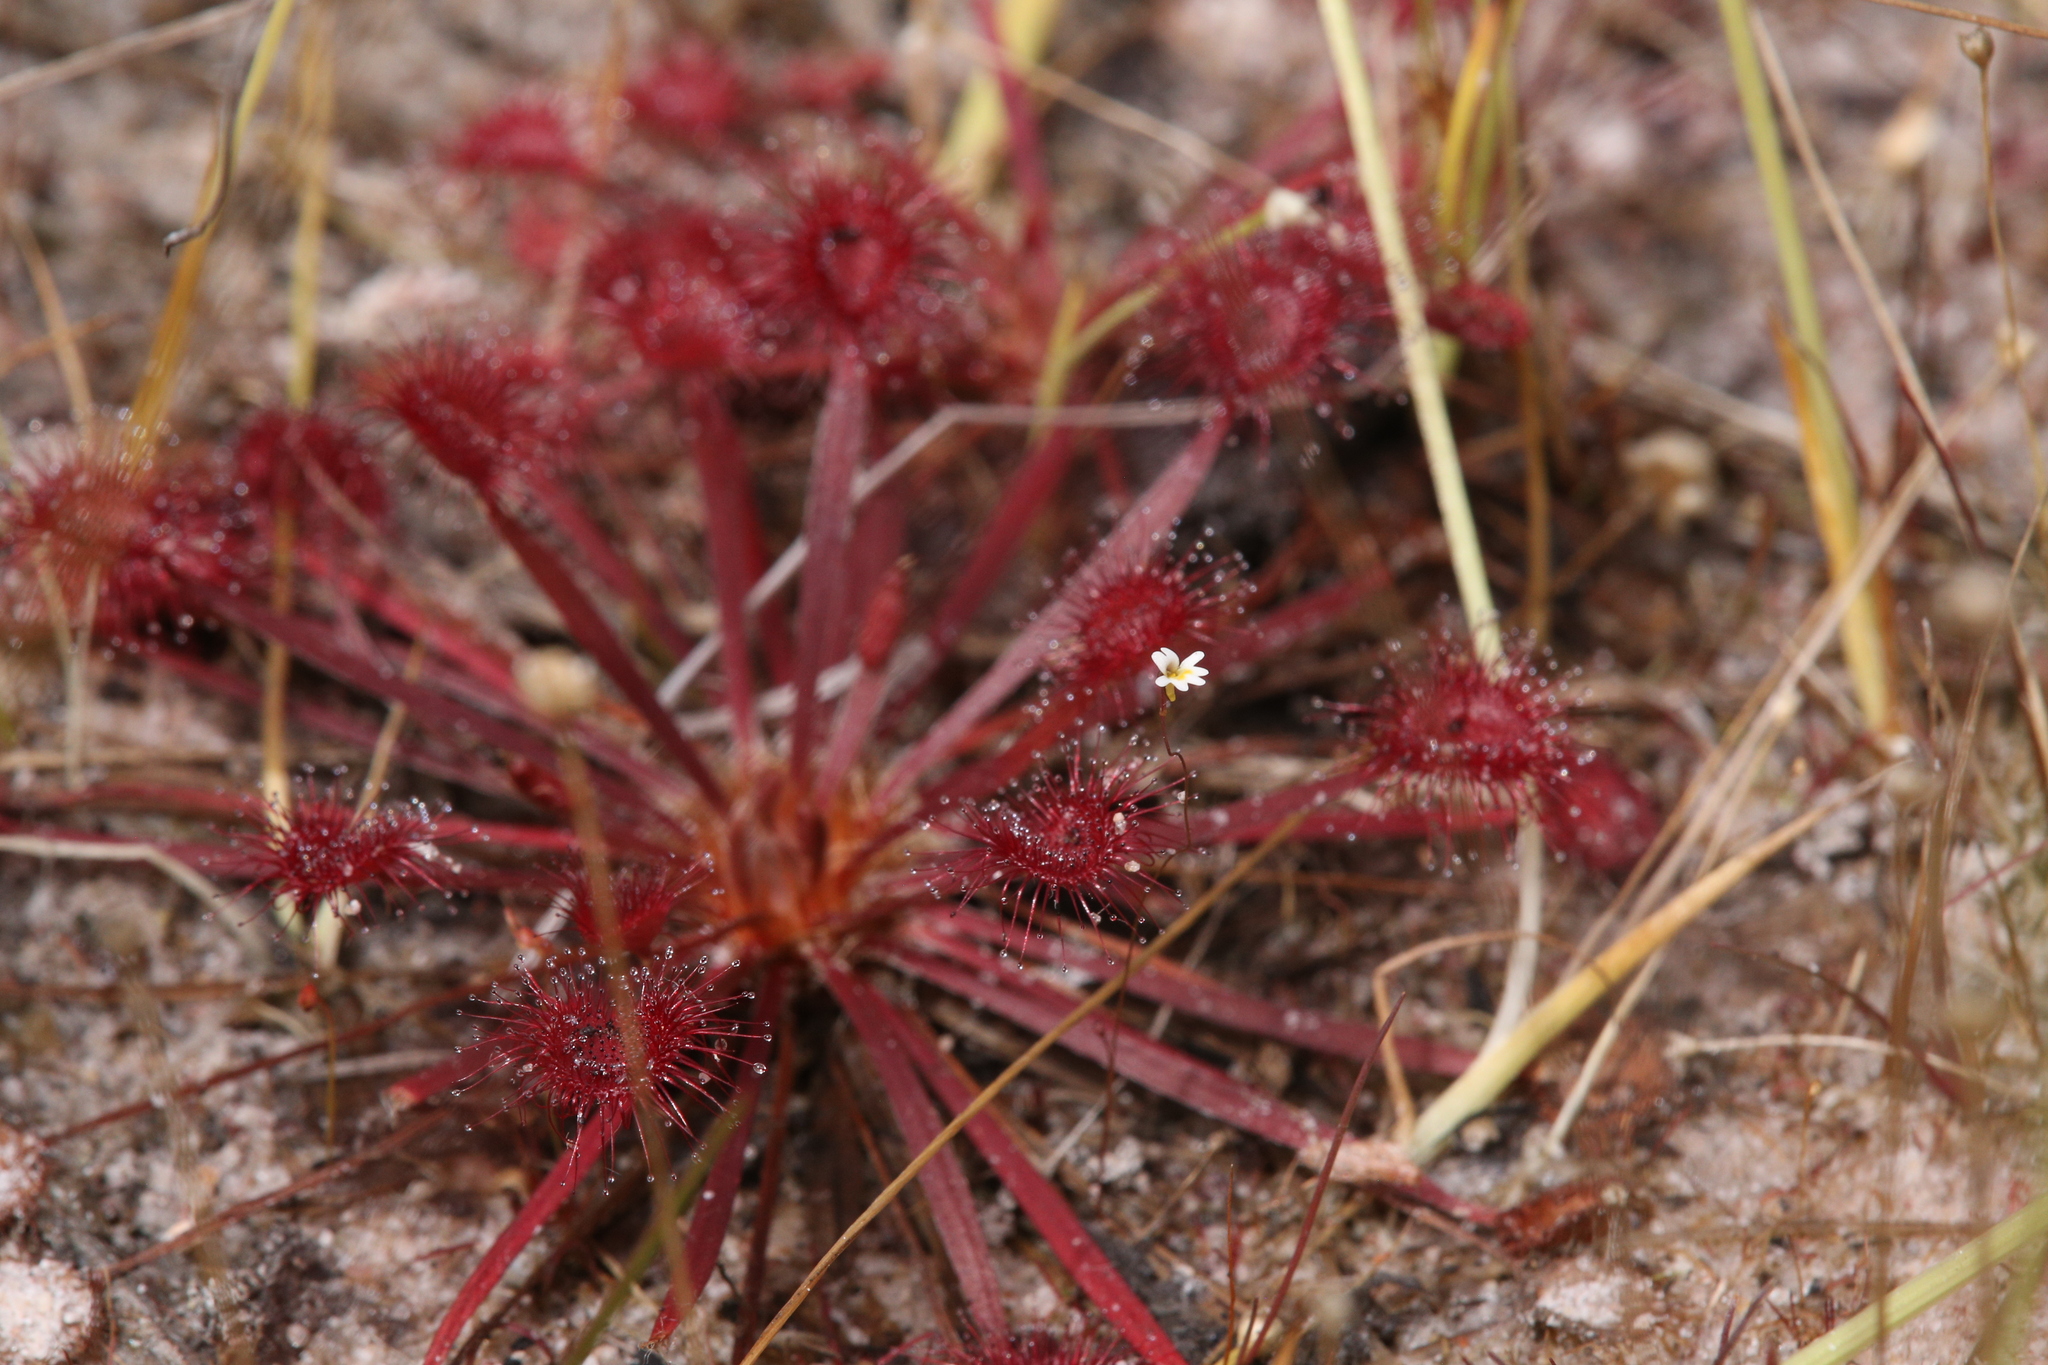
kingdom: Plantae
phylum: Tracheophyta
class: Magnoliopsida
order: Caryophyllales
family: Droseraceae
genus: Drosera
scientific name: Drosera dilatatopetiolaris
